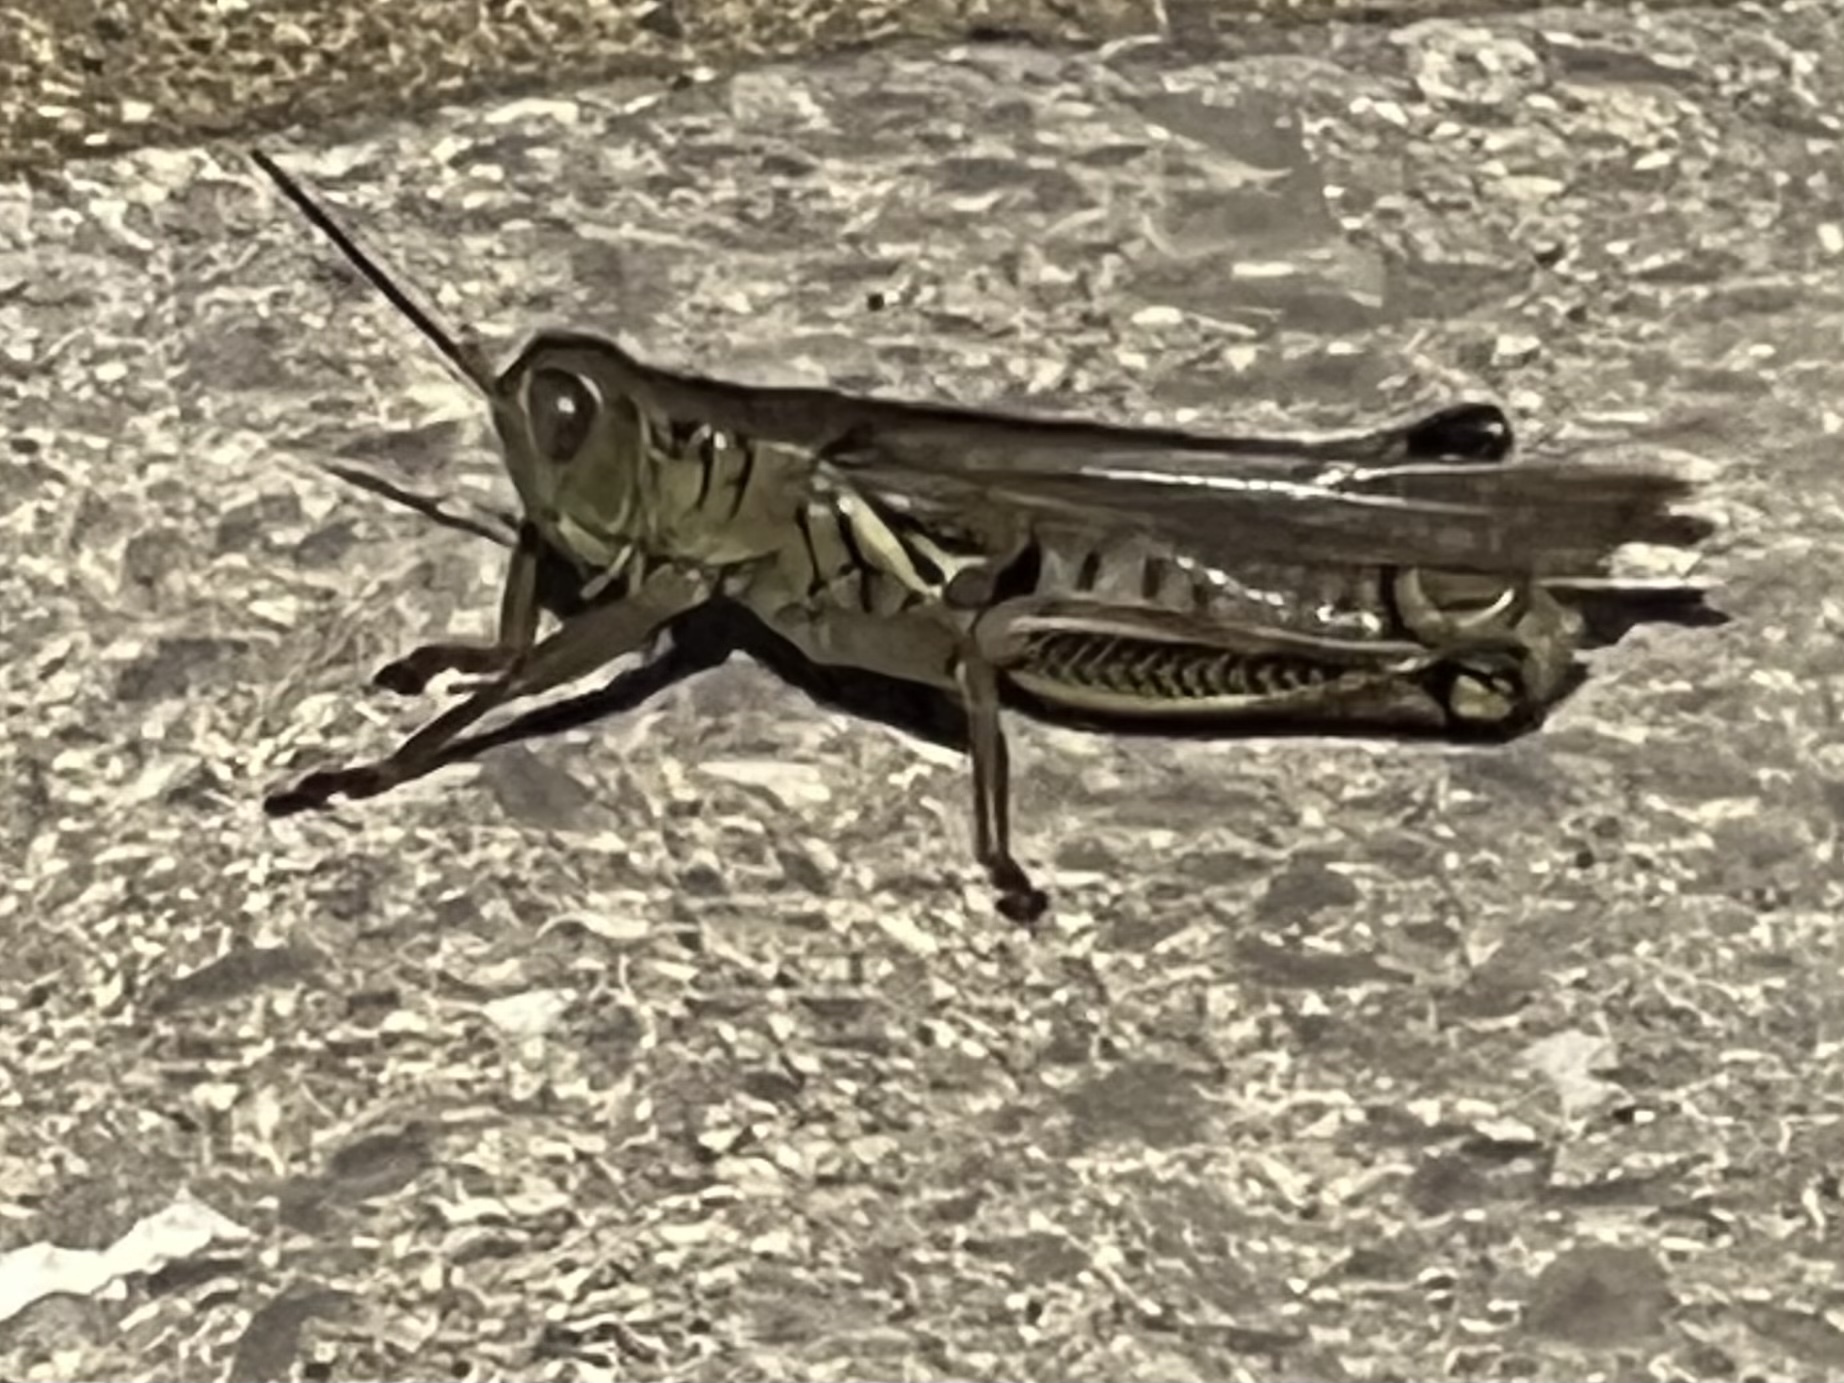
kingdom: Animalia
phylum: Arthropoda
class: Insecta
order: Orthoptera
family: Acrididae
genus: Melanoplus
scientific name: Melanoplus differentialis
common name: Differential grasshopper
